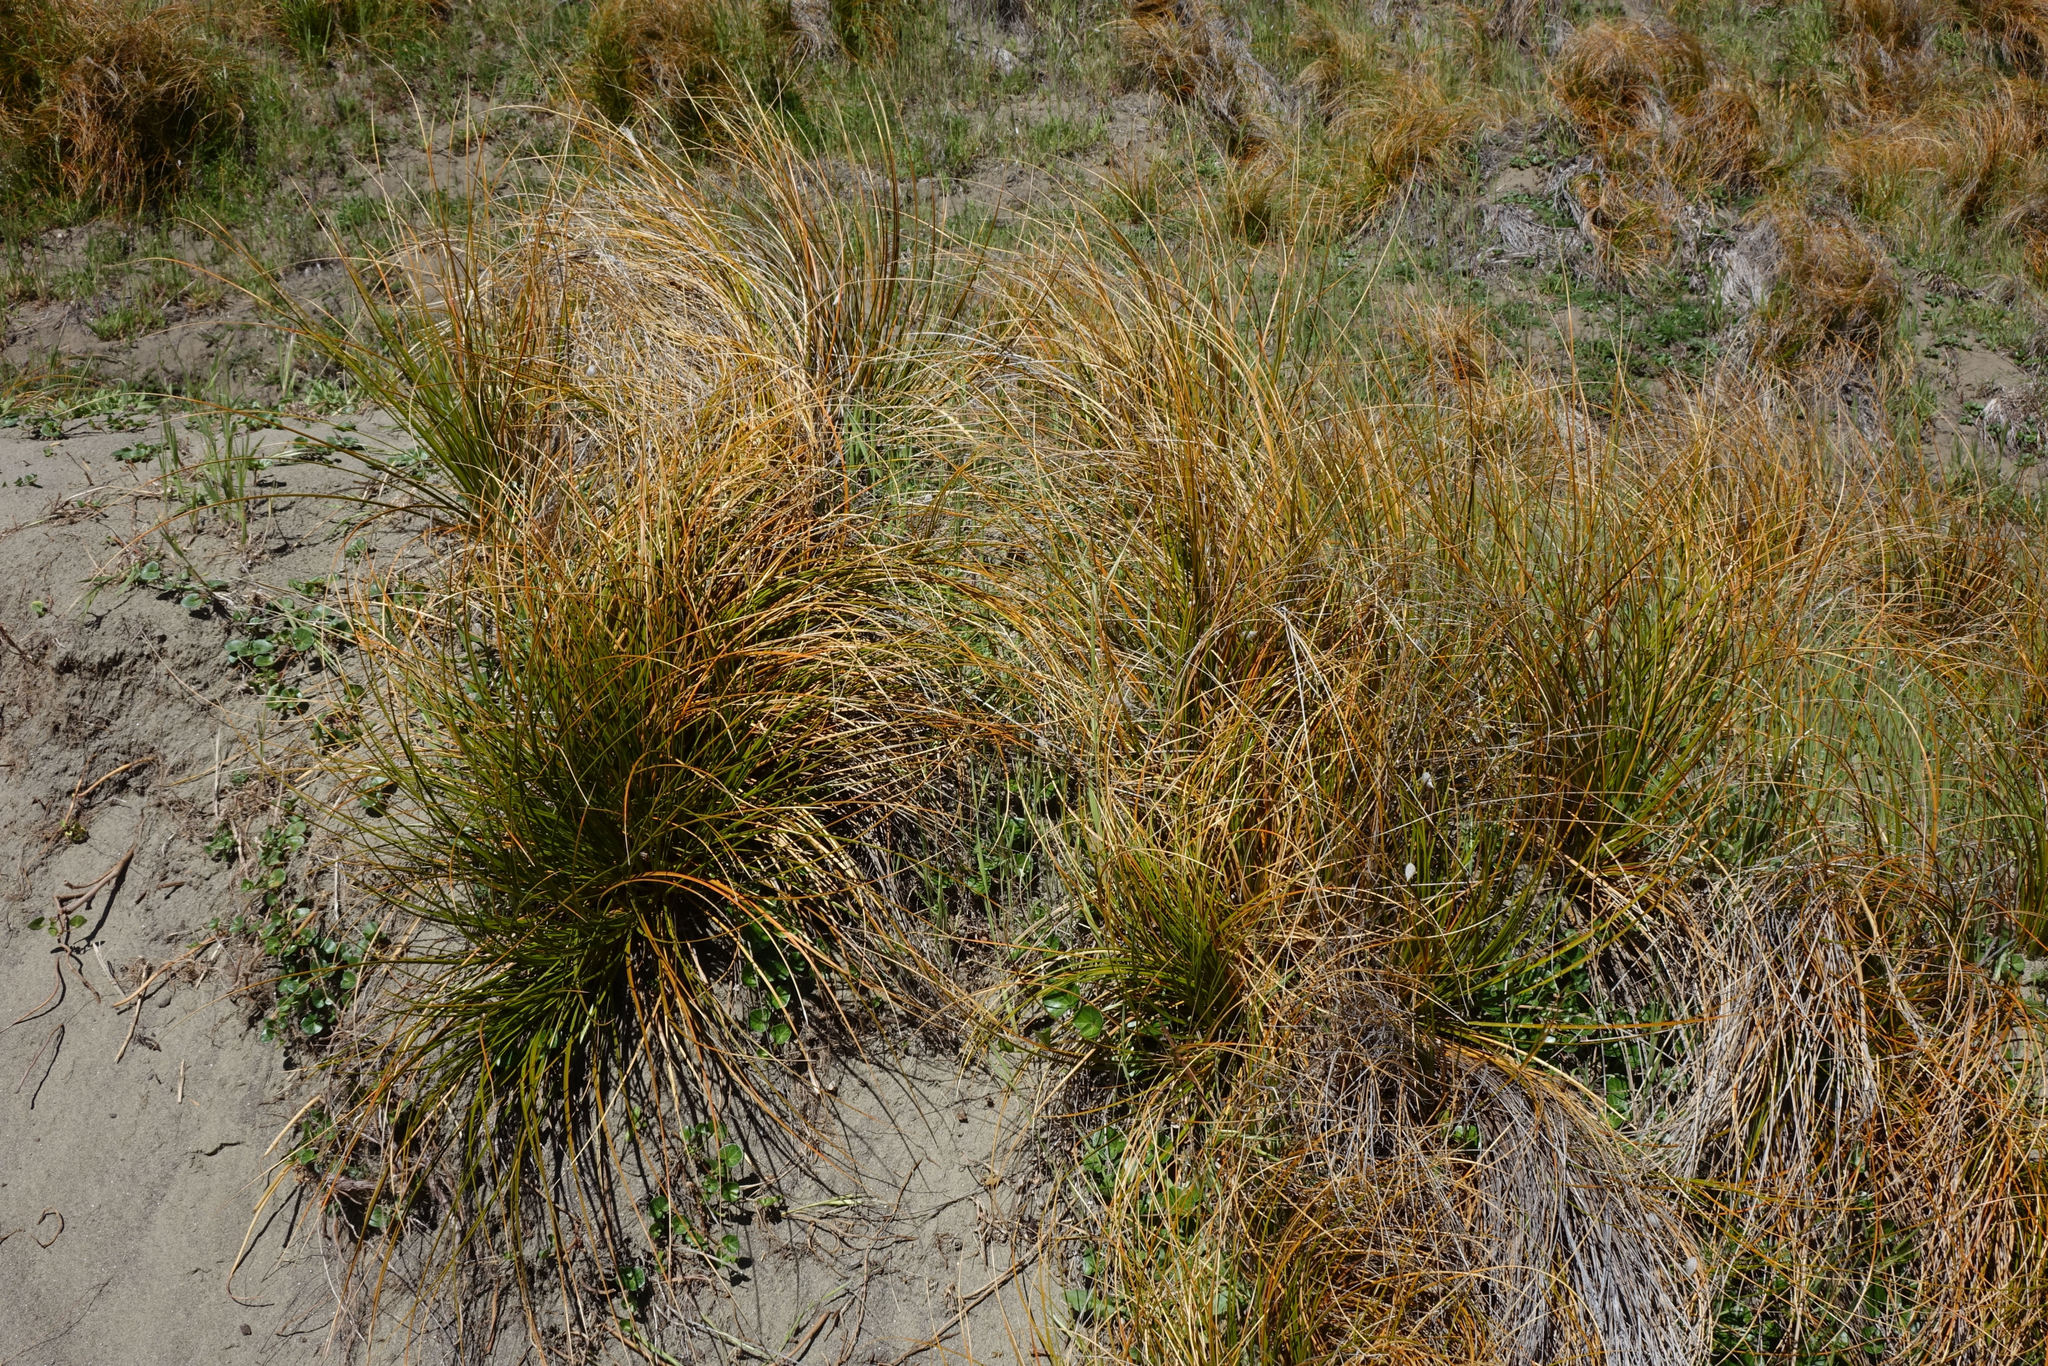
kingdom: Plantae
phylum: Tracheophyta
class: Liliopsida
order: Poales
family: Cyperaceae
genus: Ficinia
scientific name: Ficinia spiralis
